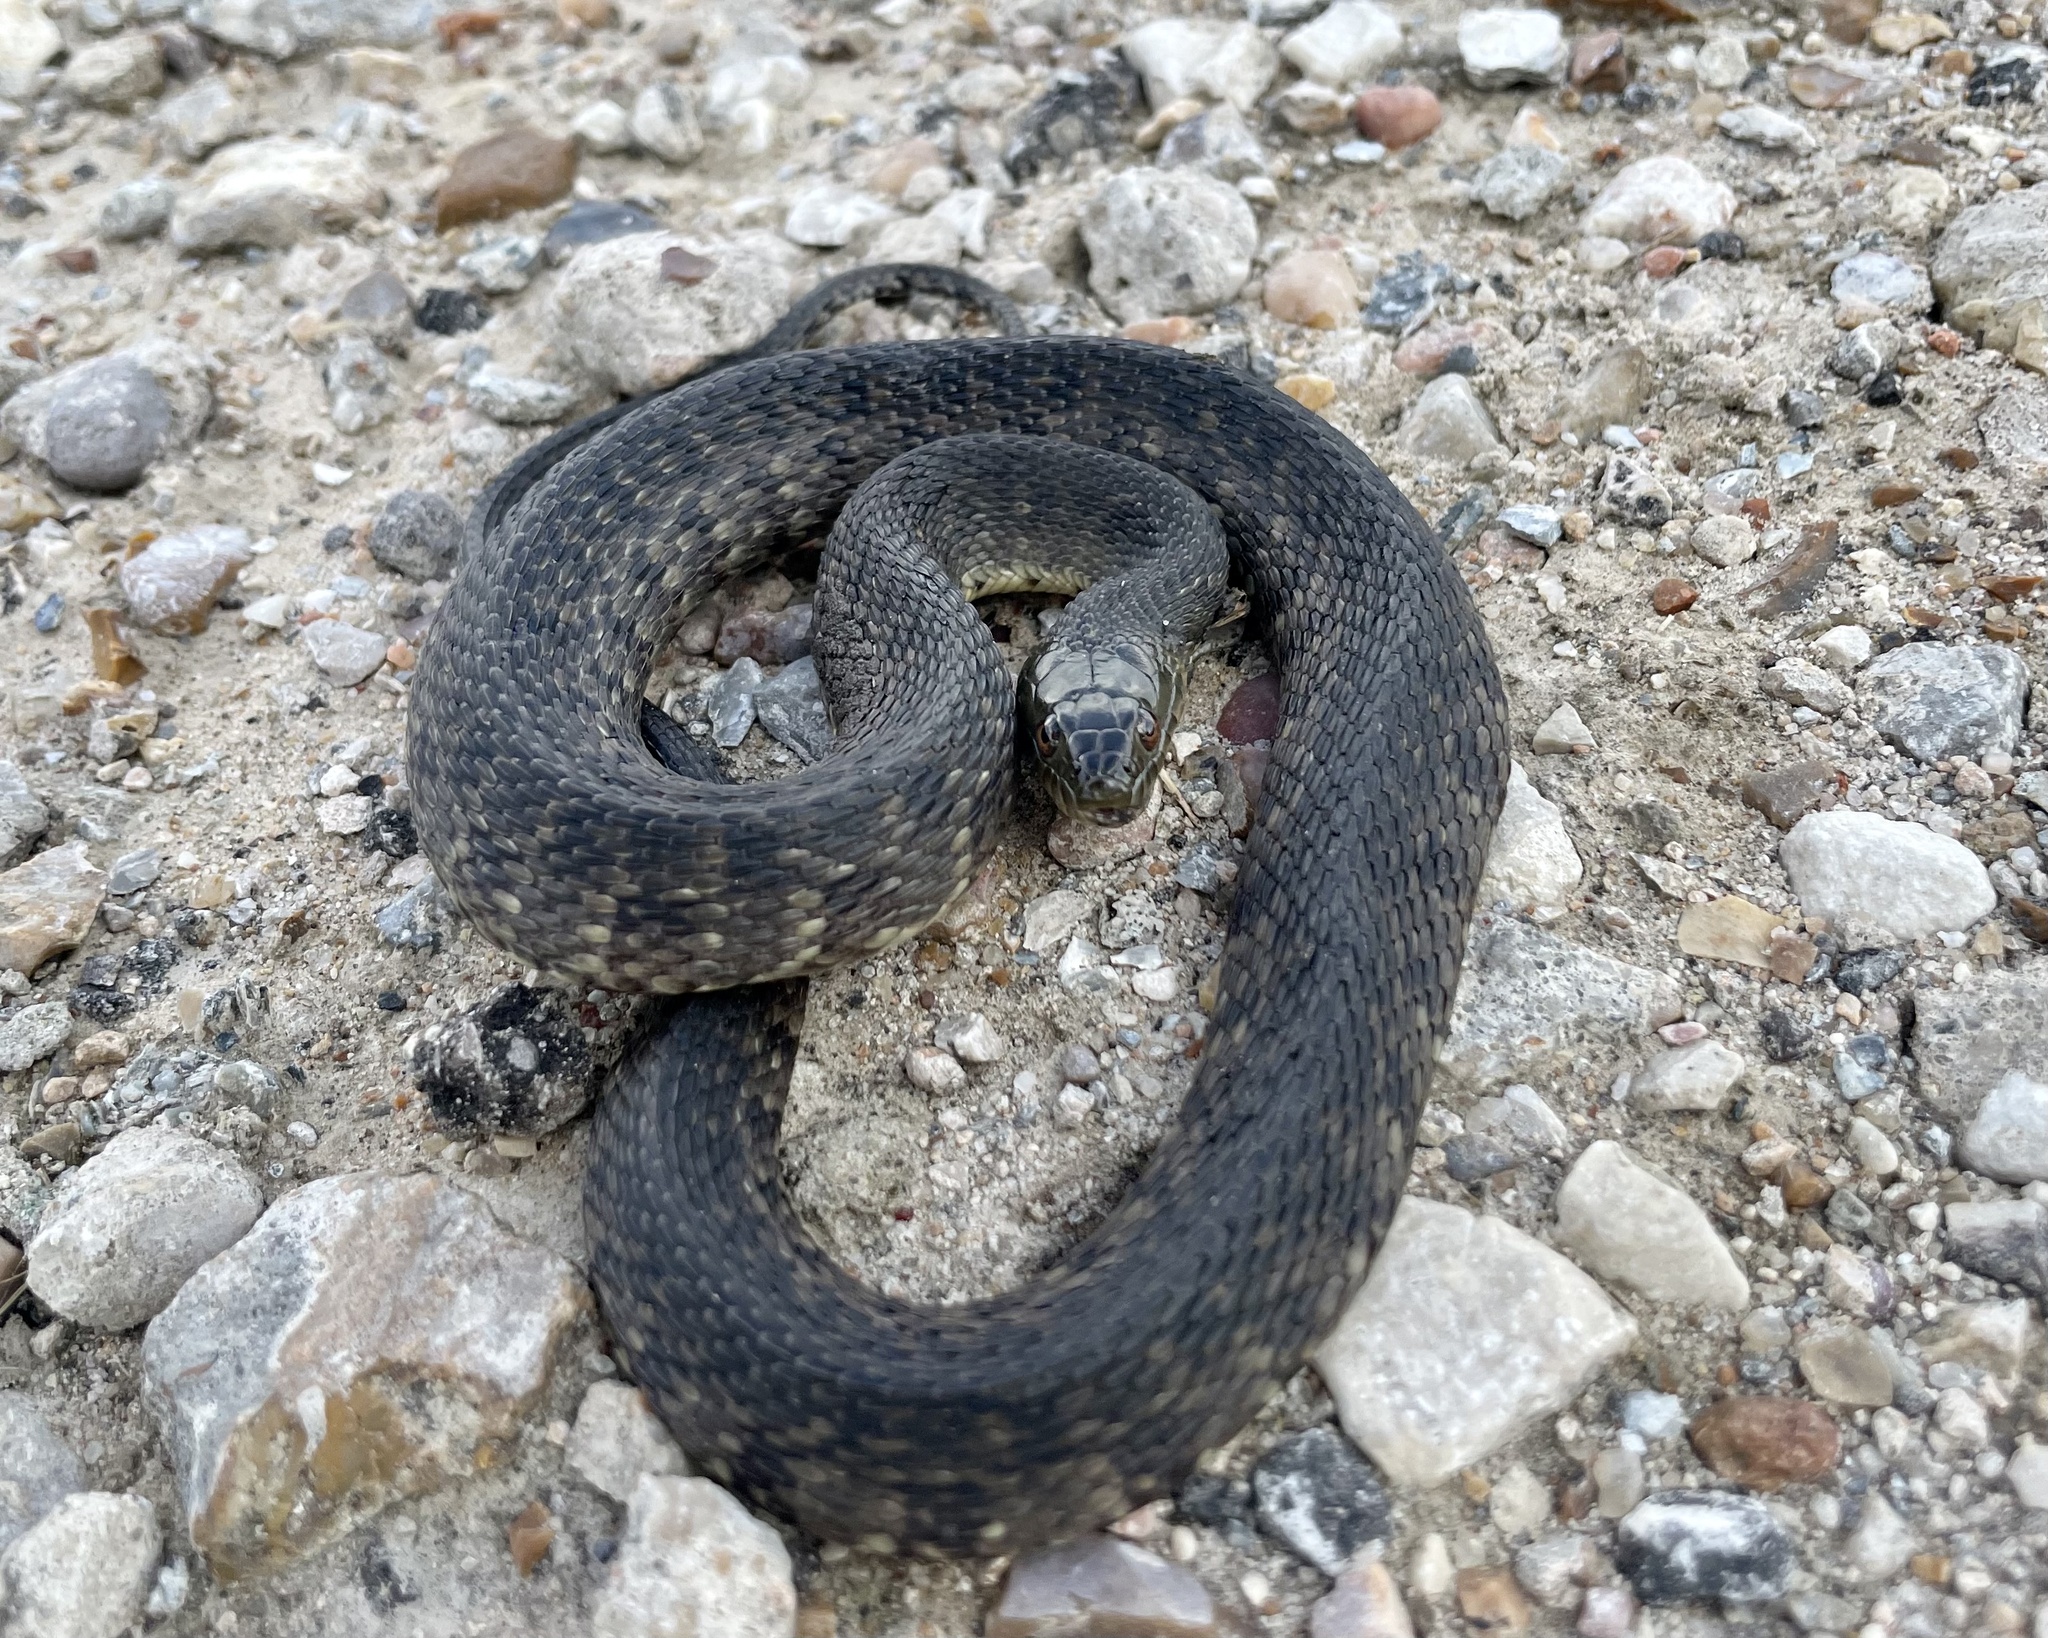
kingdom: Animalia
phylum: Chordata
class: Squamata
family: Colubridae
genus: Nerodia
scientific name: Nerodia cyclopion
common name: Mississippi green water snake
